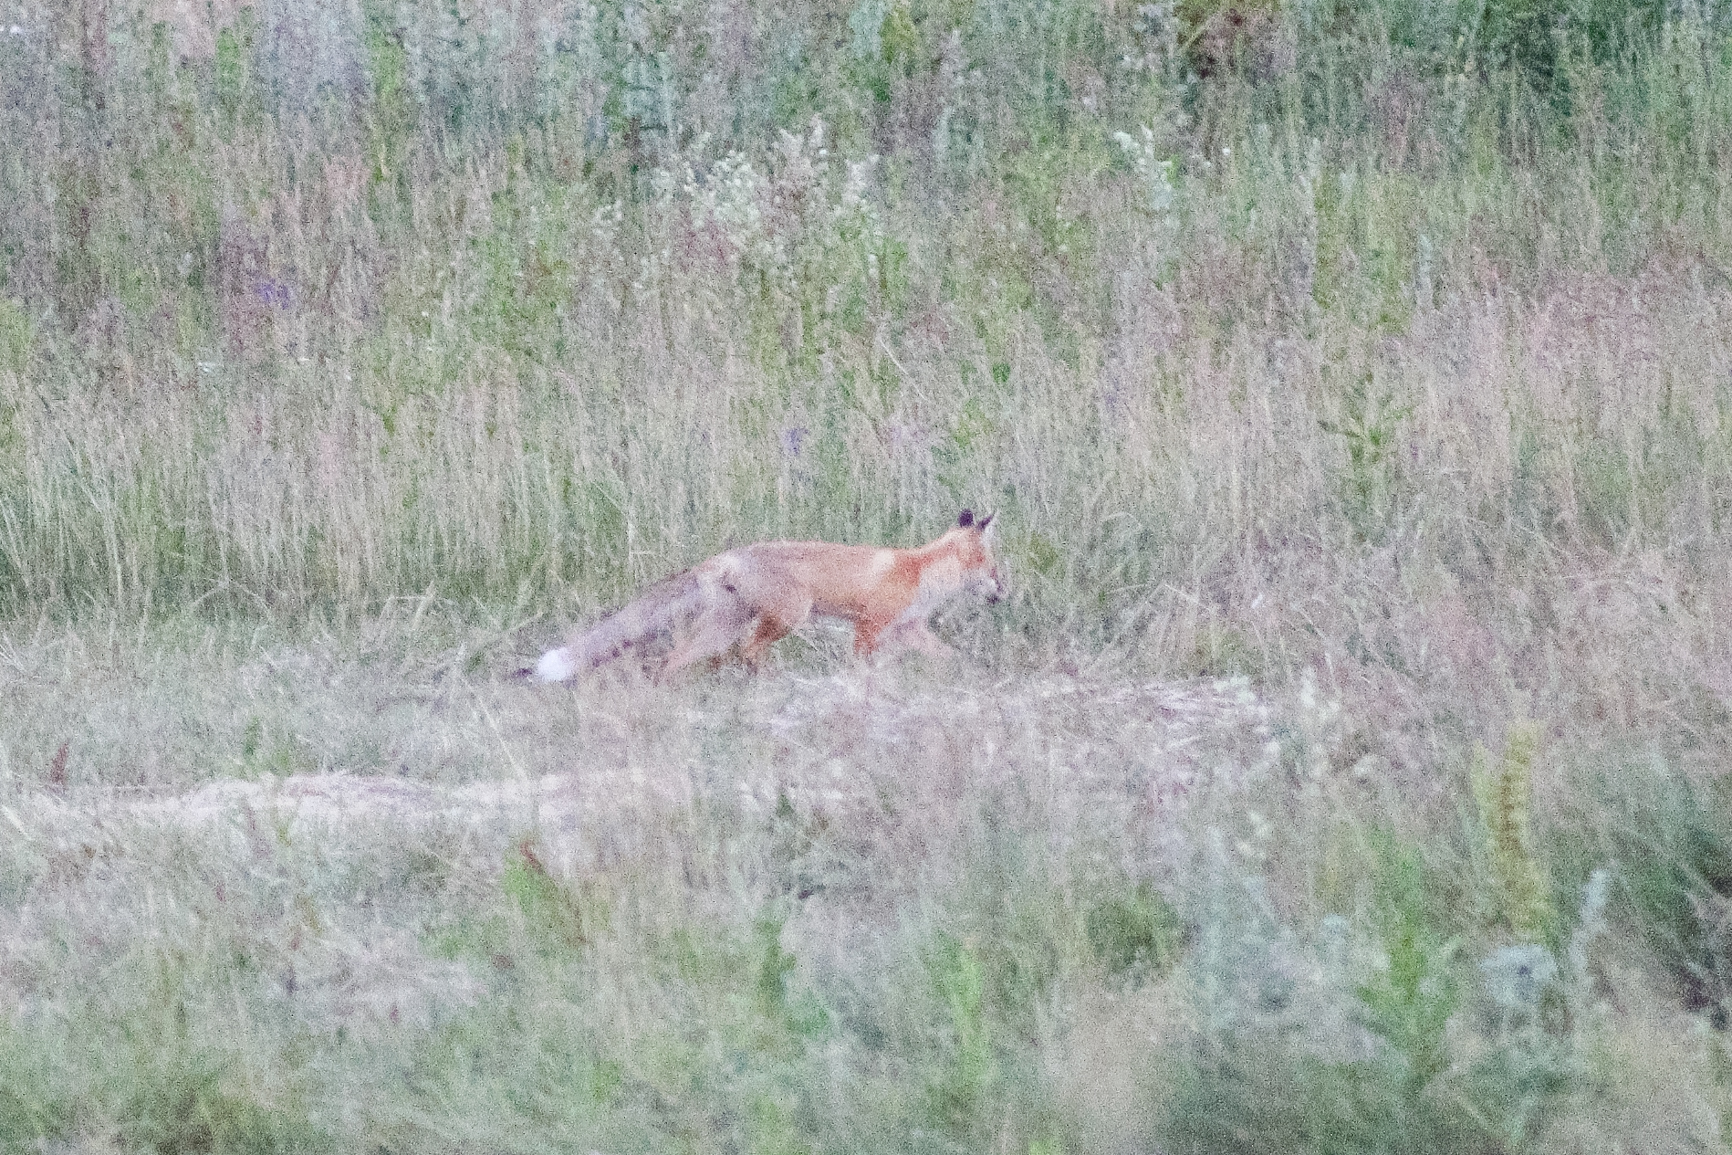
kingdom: Animalia
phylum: Chordata
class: Mammalia
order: Carnivora
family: Canidae
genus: Vulpes
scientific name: Vulpes vulpes
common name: Red fox
